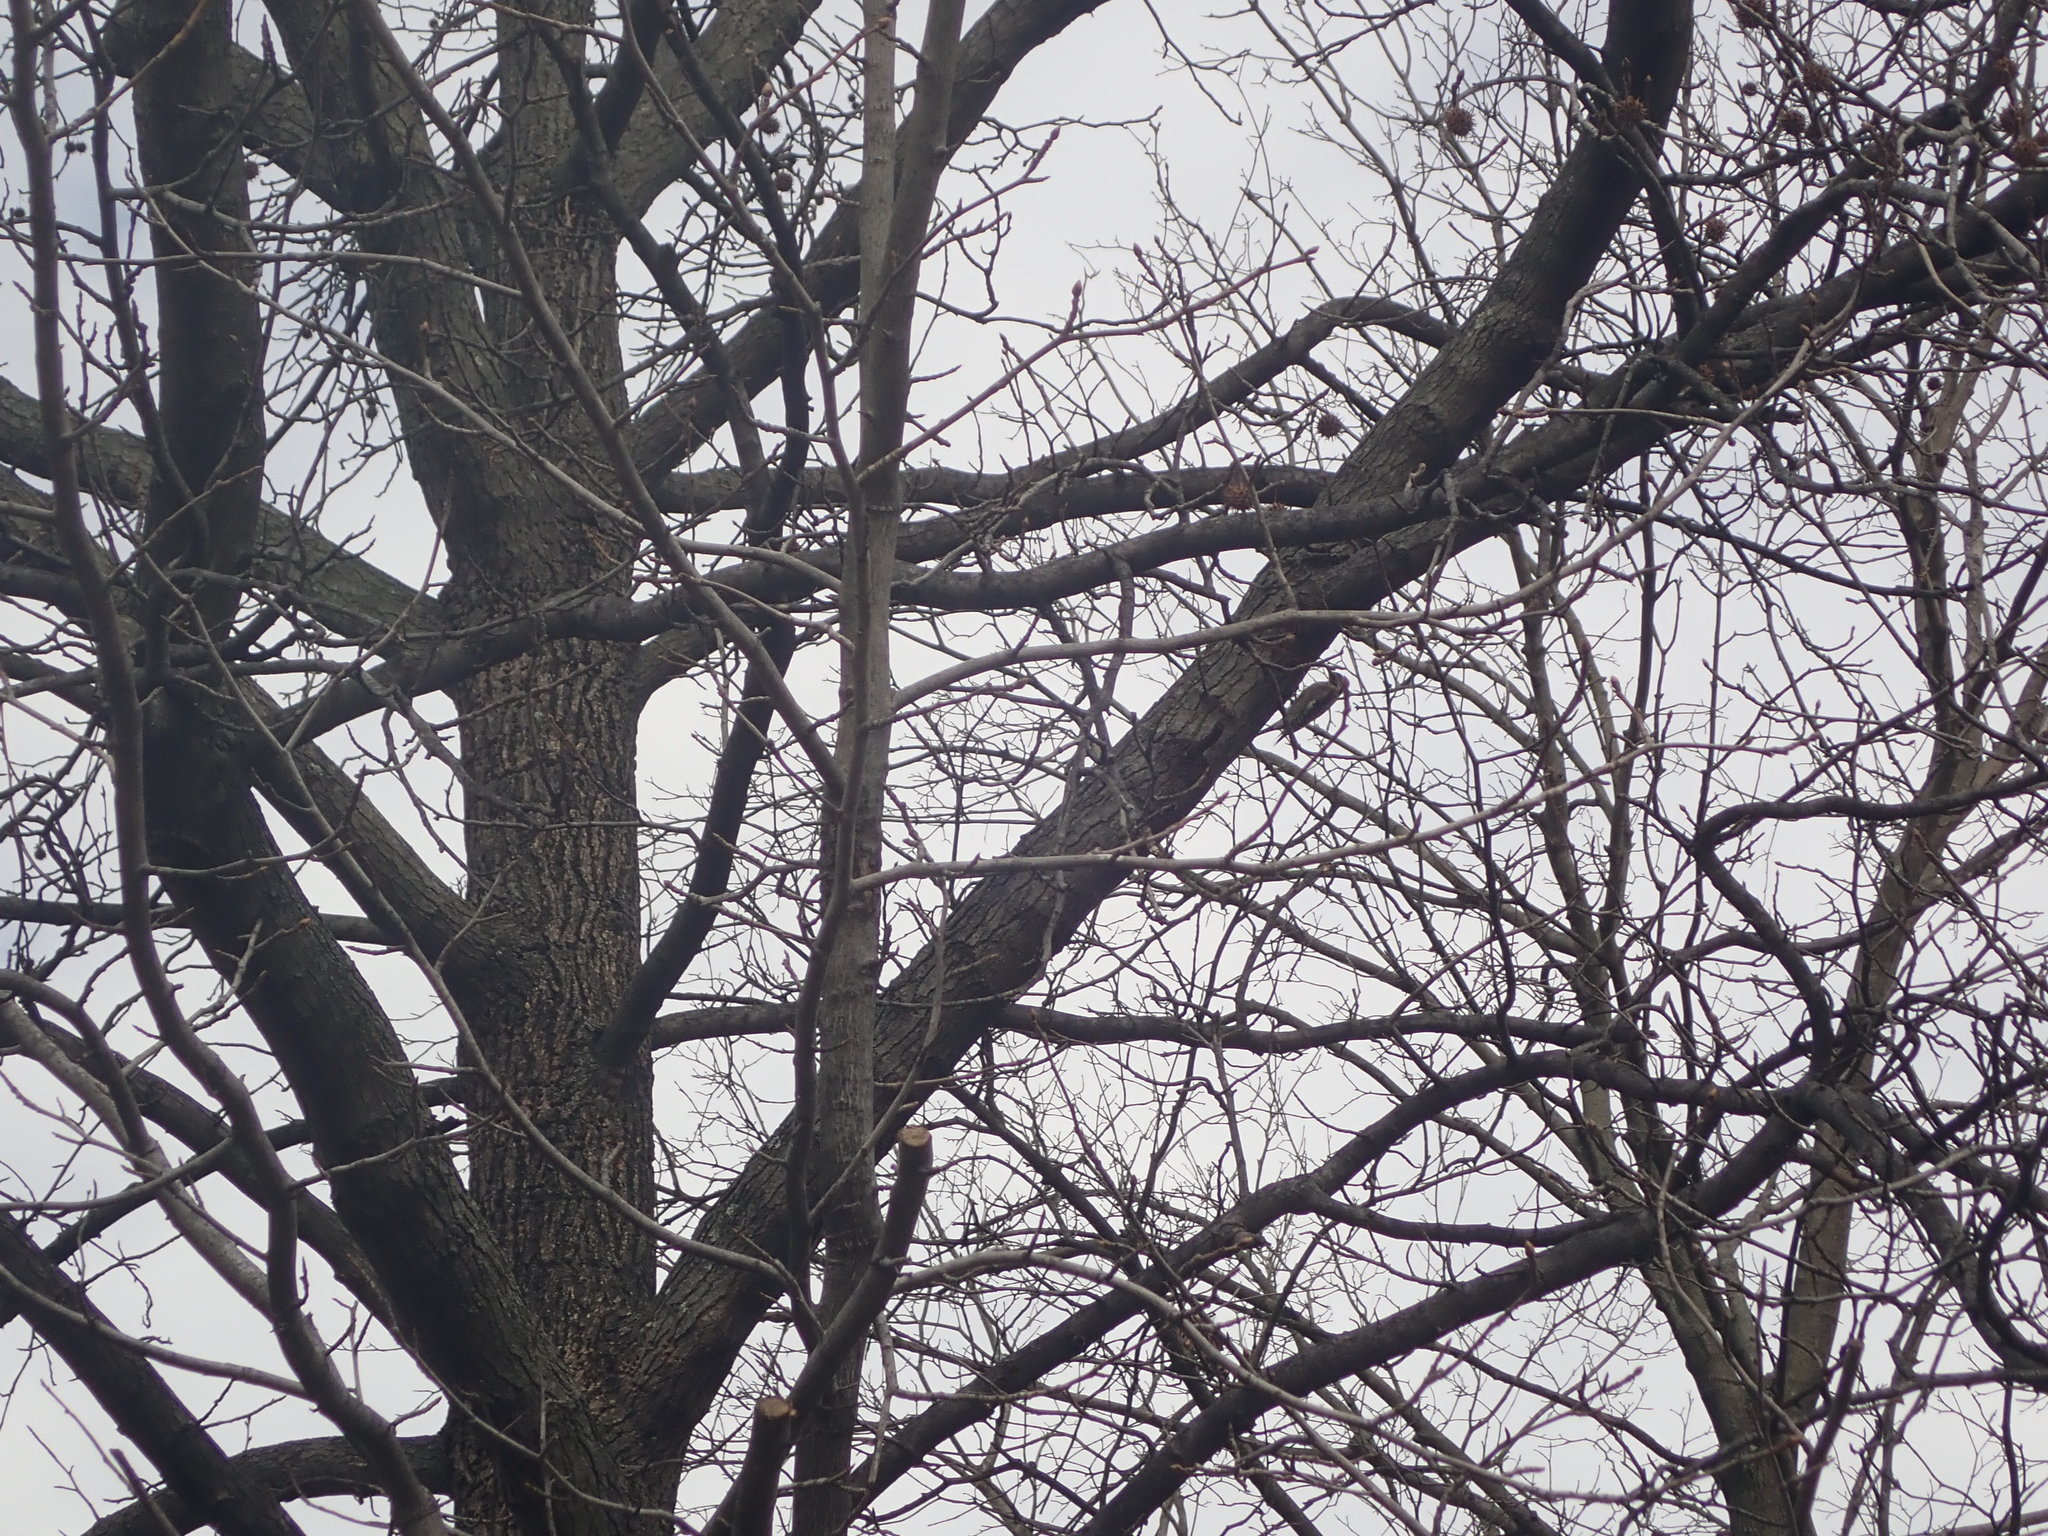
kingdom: Animalia
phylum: Chordata
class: Aves
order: Piciformes
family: Picidae
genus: Sphyrapicus
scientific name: Sphyrapicus varius
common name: Yellow-bellied sapsucker
